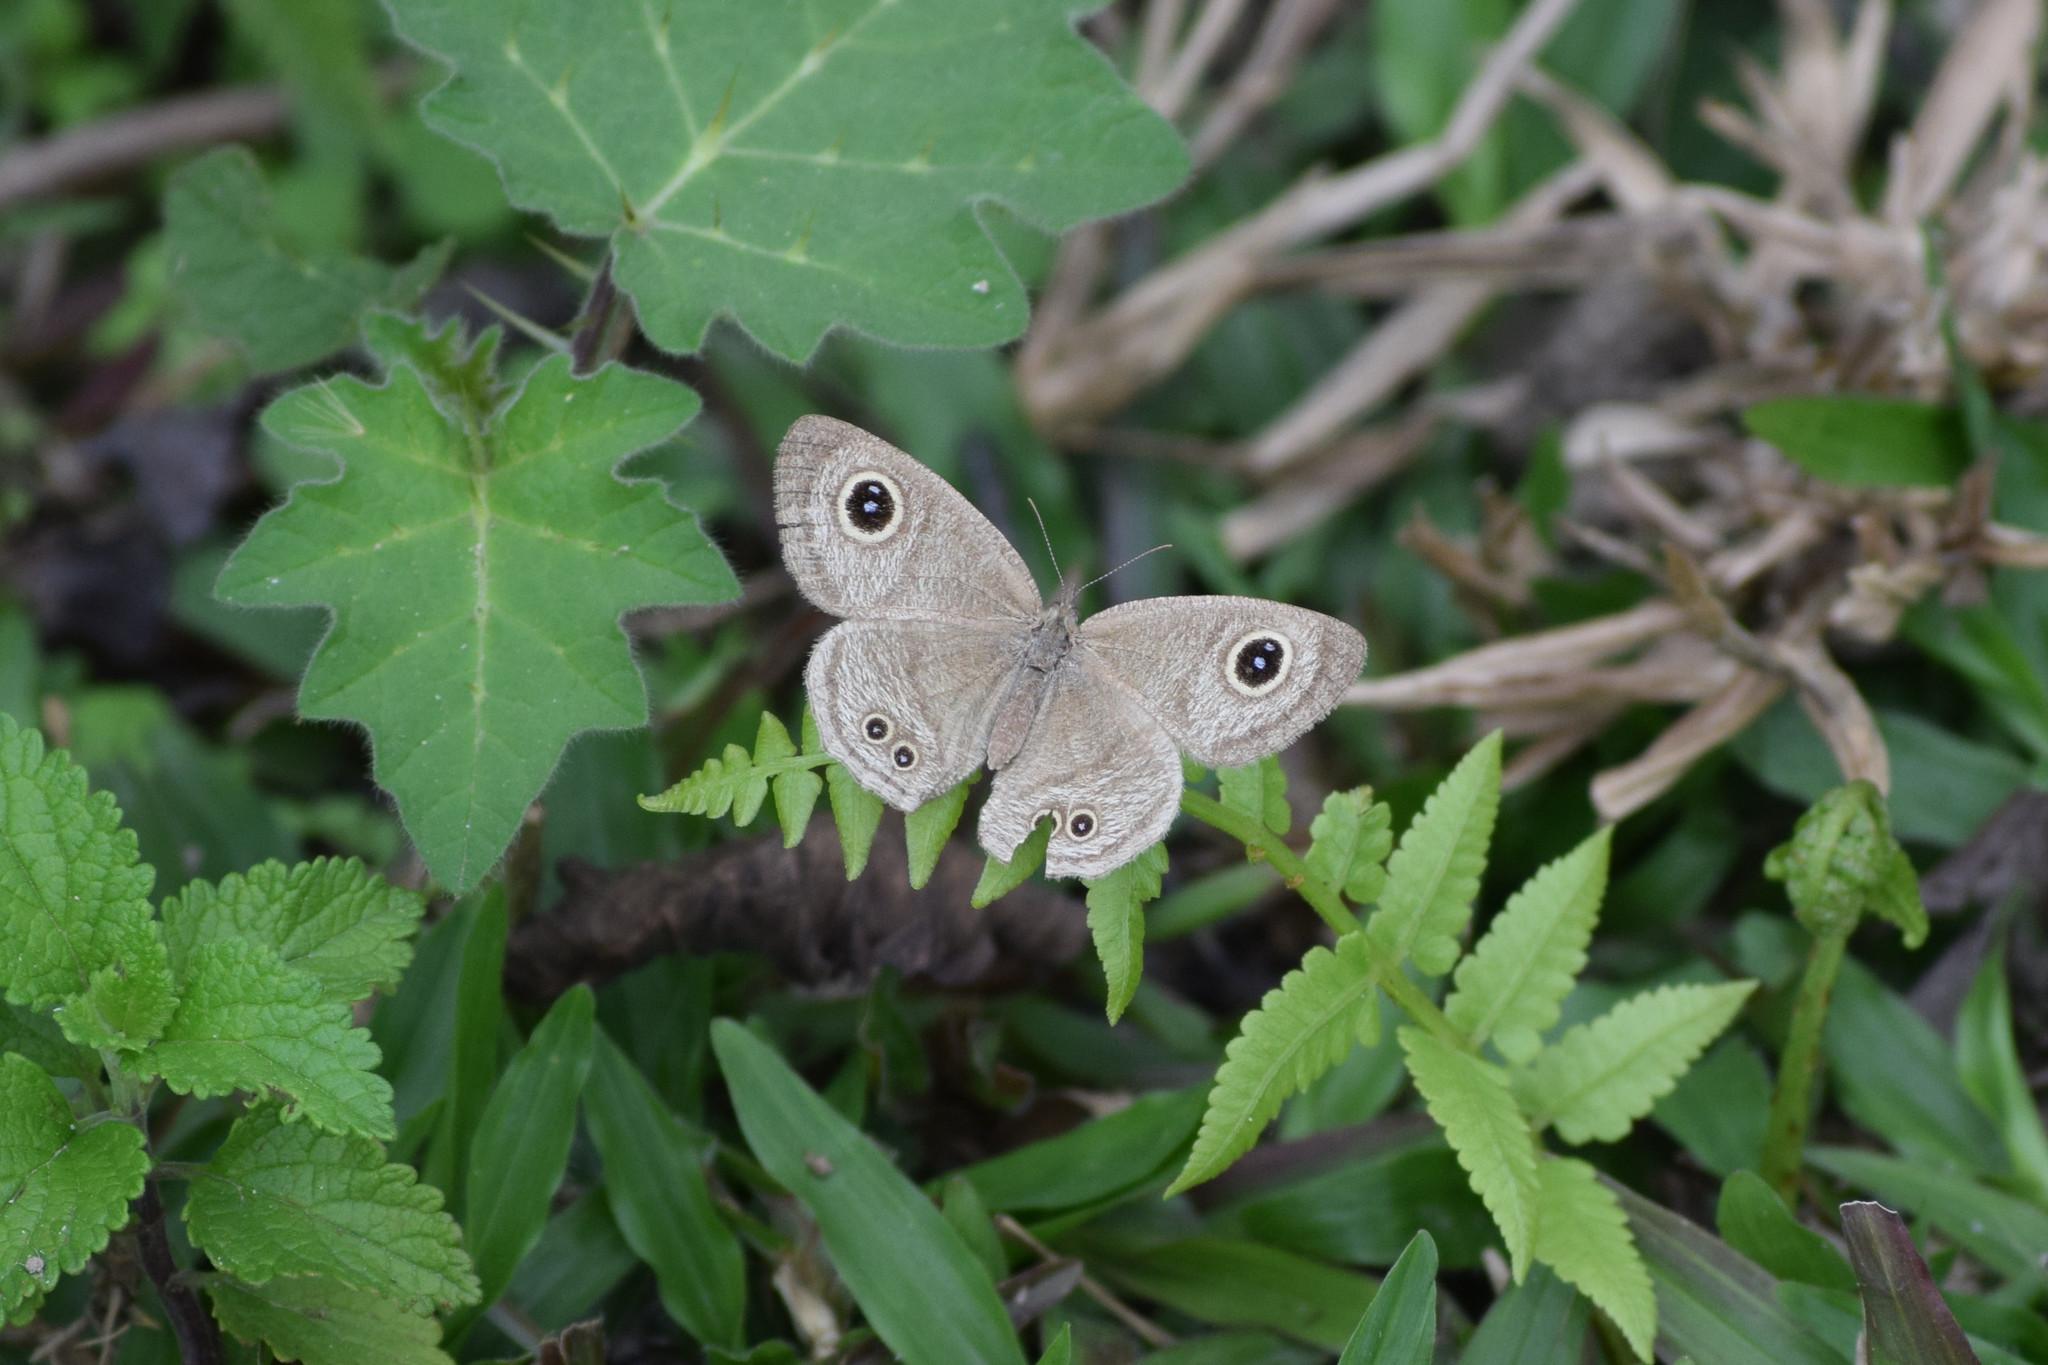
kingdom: Animalia
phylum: Arthropoda
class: Insecta
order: Lepidoptera
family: Nymphalidae
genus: Ypthima
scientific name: Ypthima baldus
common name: Common five-ring
